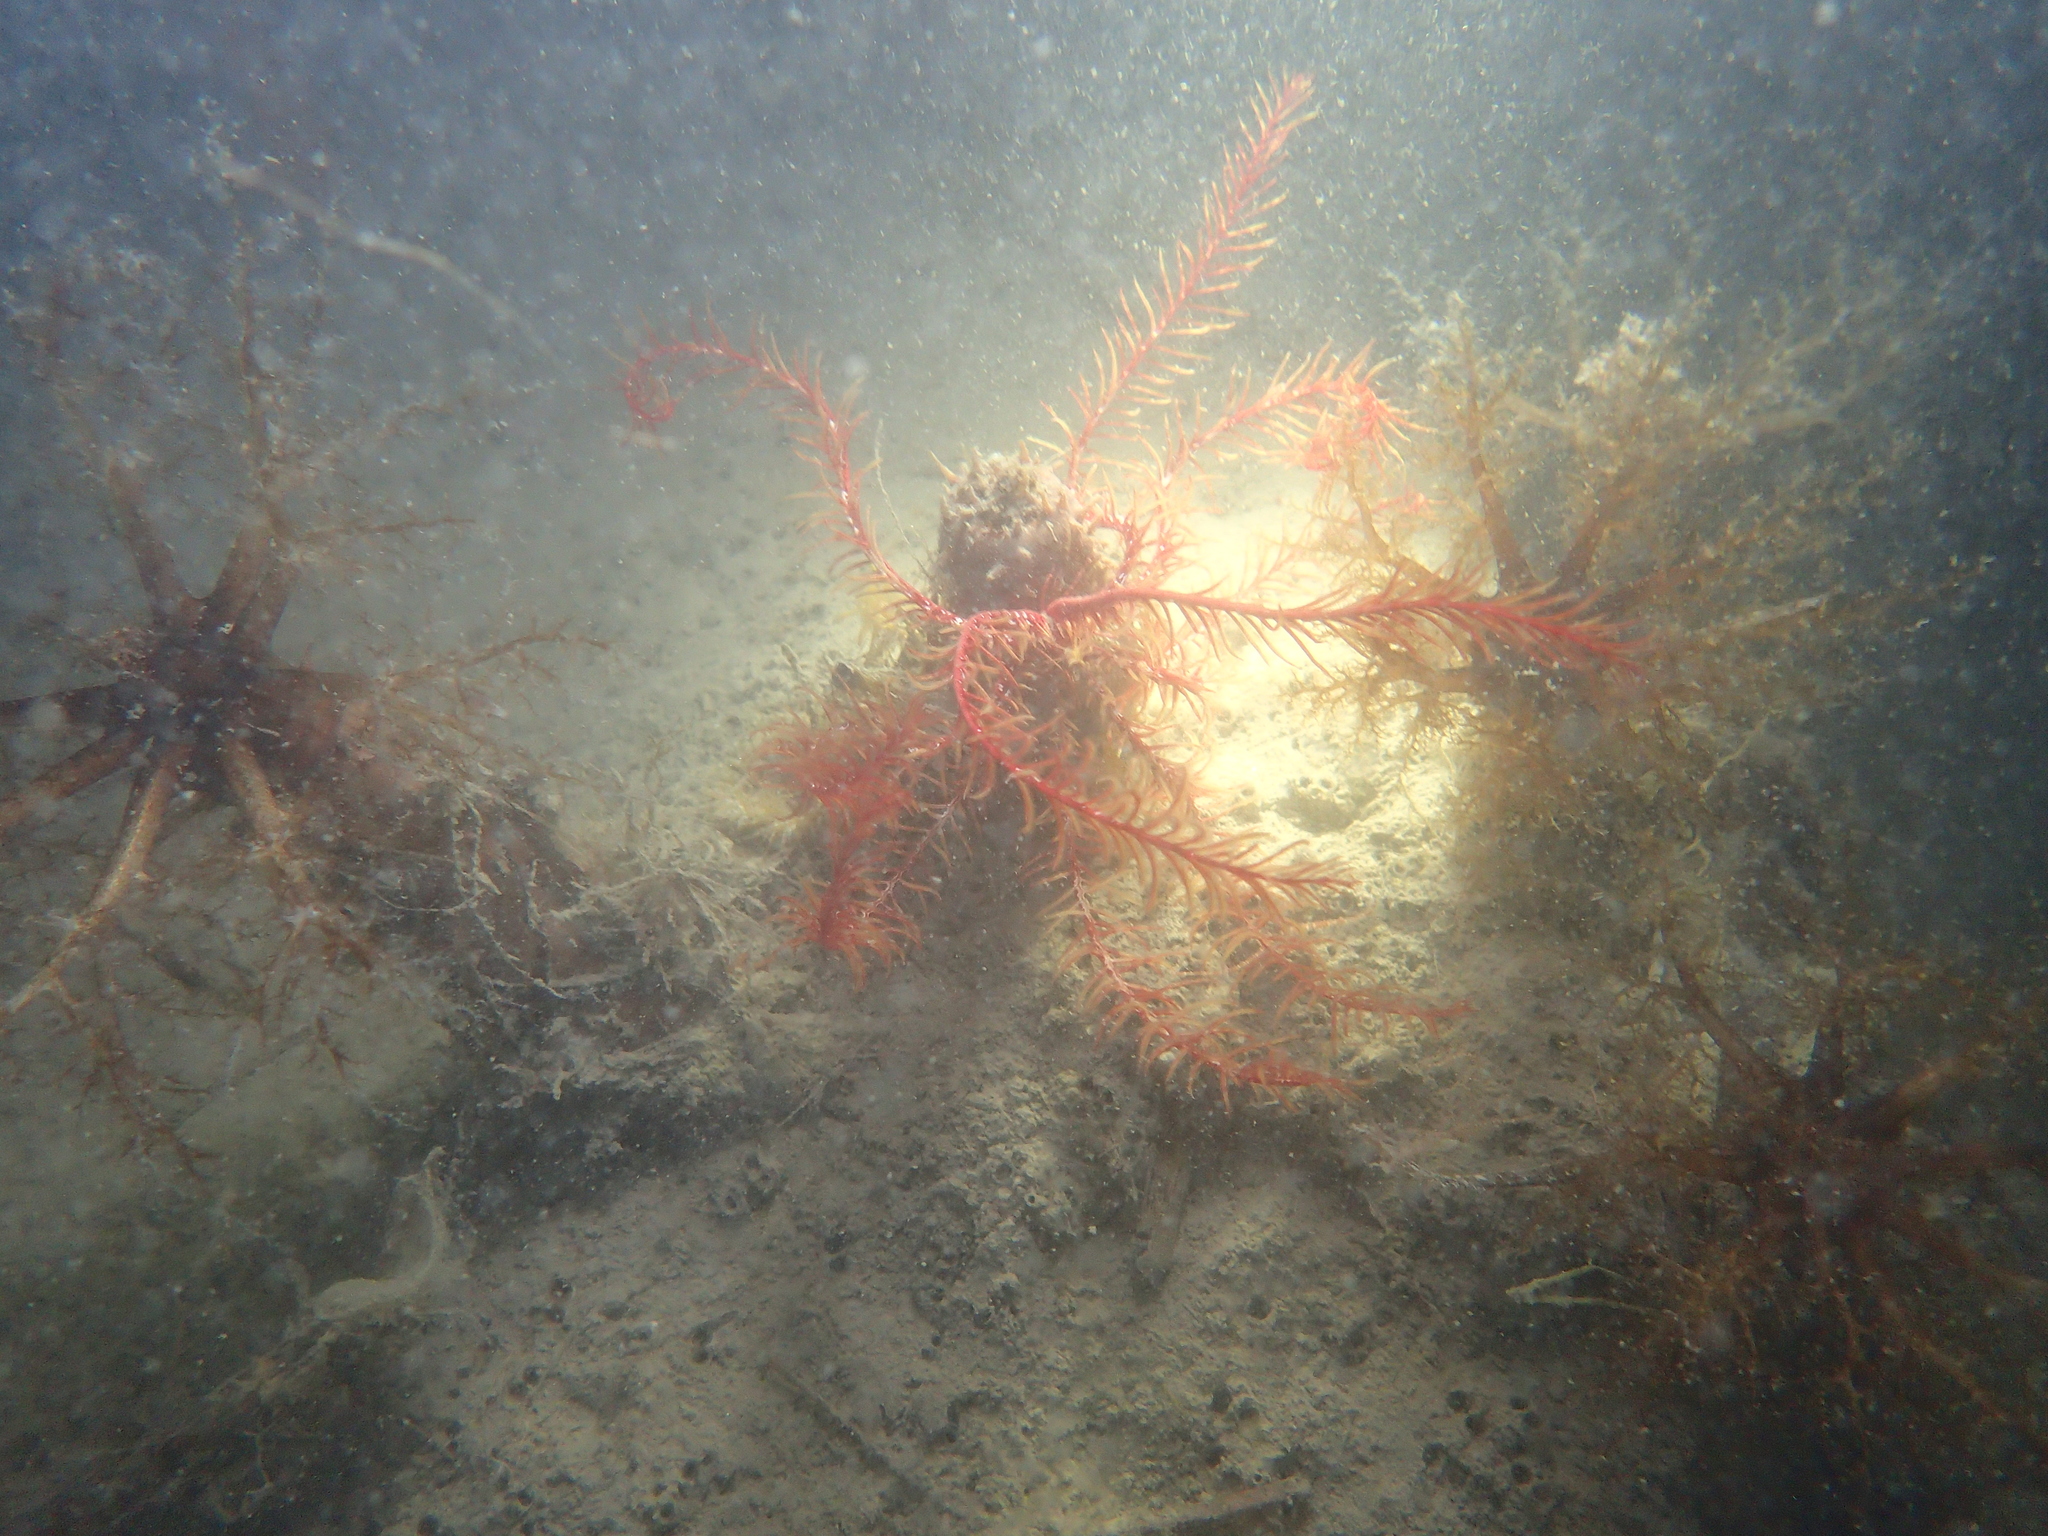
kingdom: Animalia
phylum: Echinodermata
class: Crinoidea
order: Comatulida
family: Antedonidae
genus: Antedon
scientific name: Antedon mediterranea
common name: Feather star
